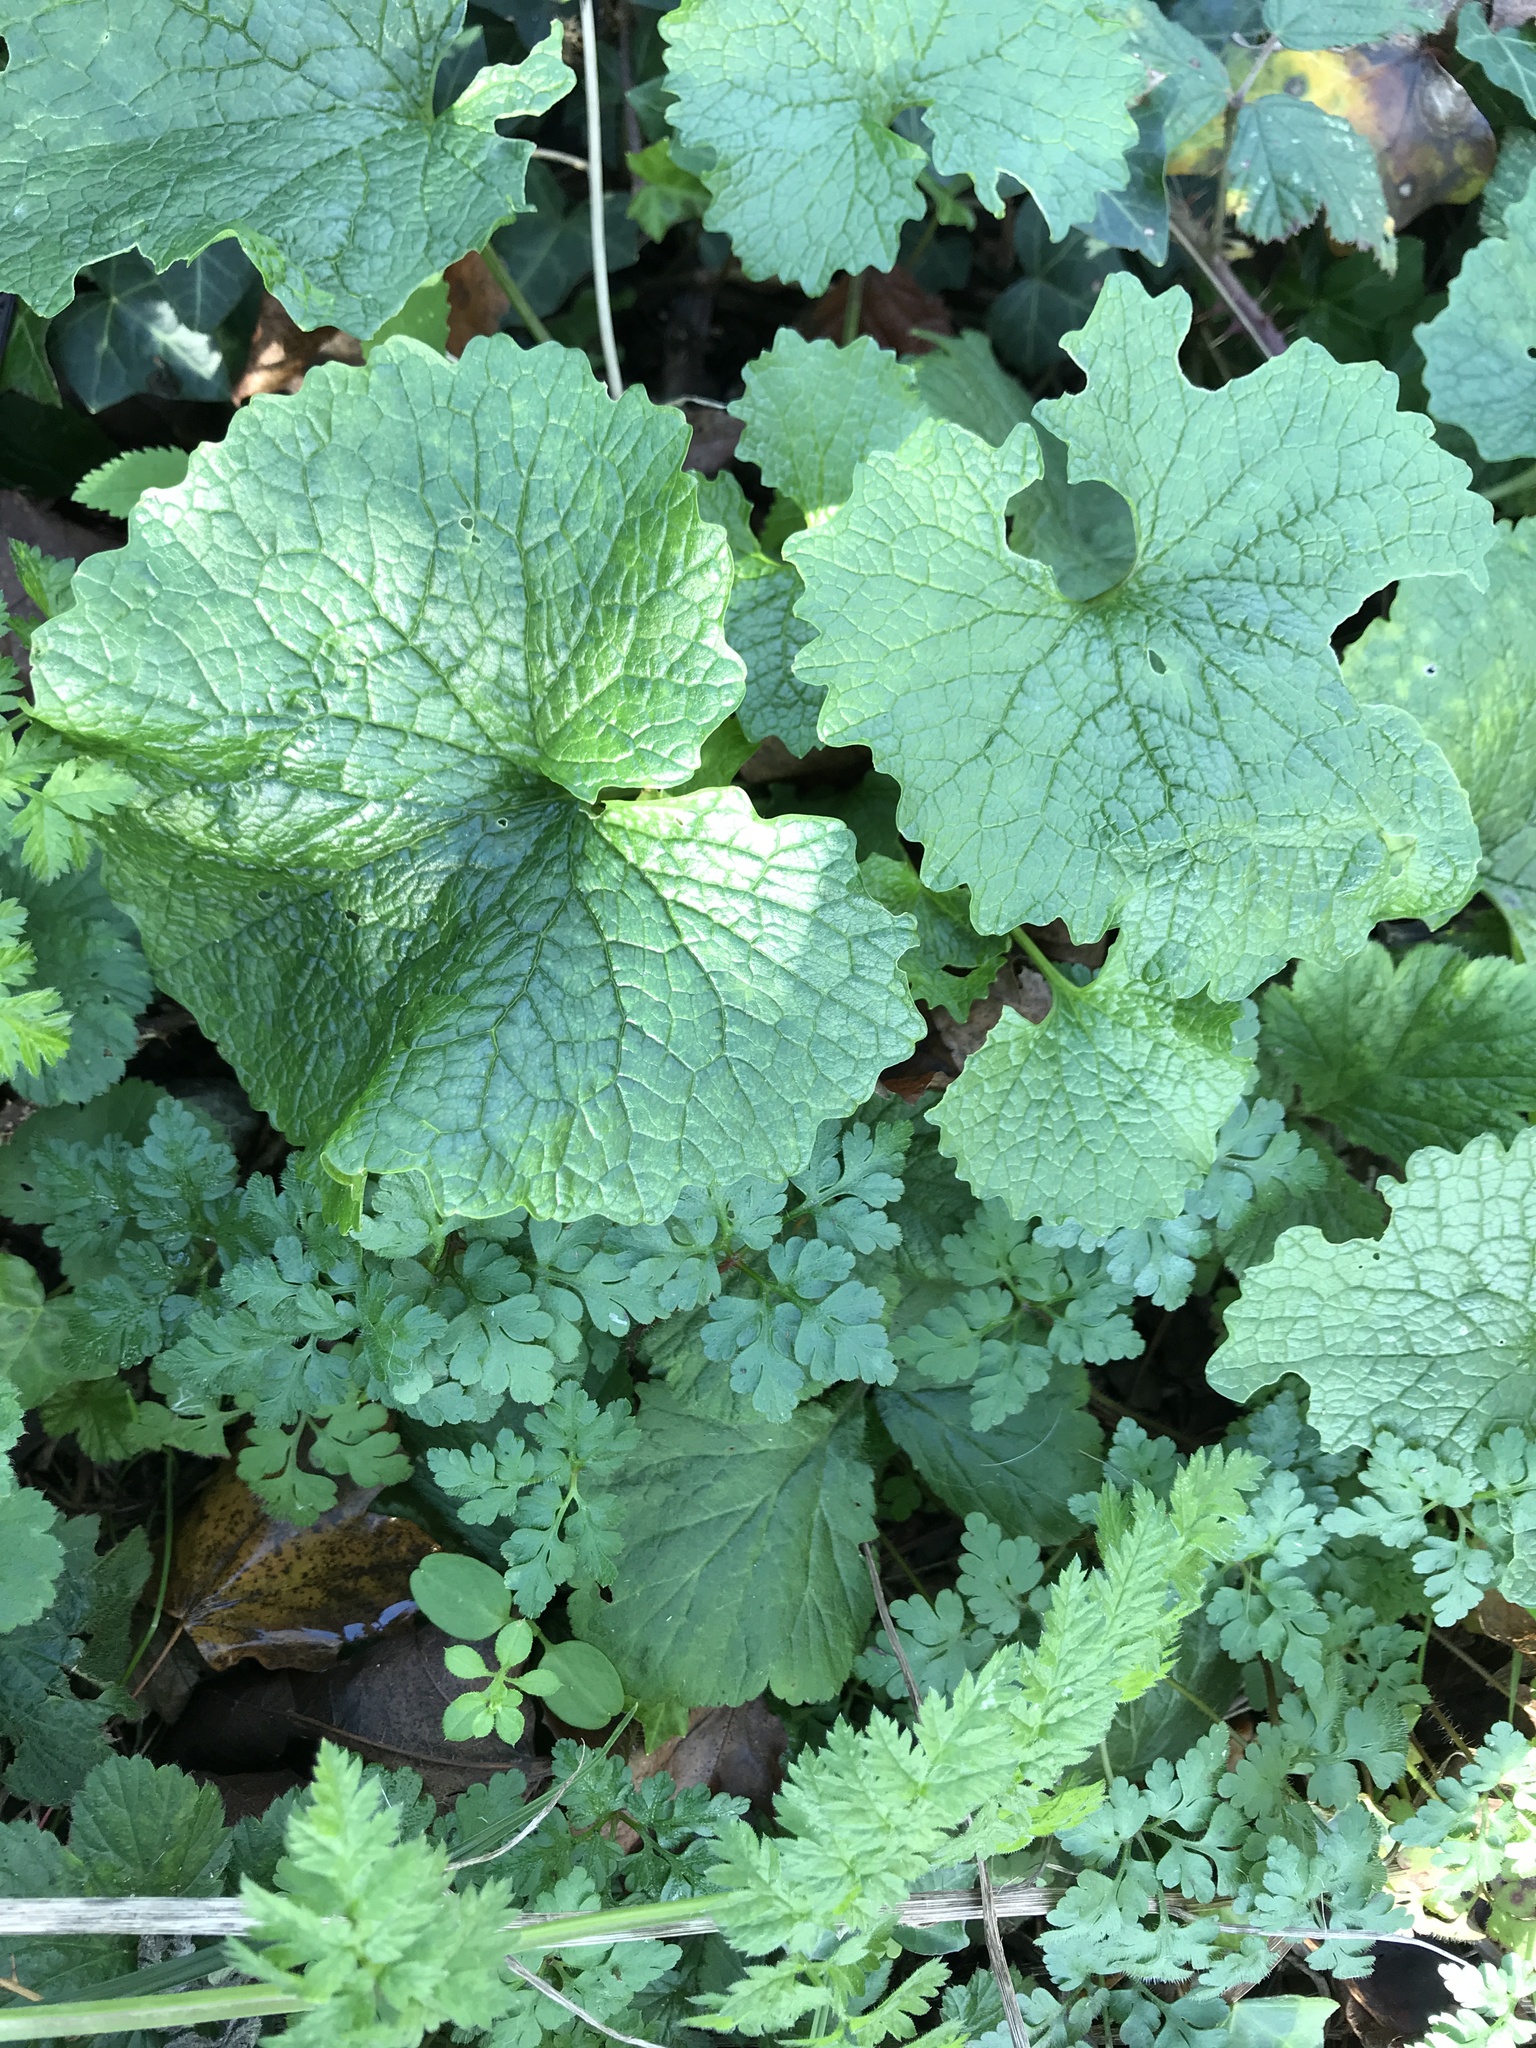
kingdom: Plantae
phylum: Tracheophyta
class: Magnoliopsida
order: Brassicales
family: Brassicaceae
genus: Alliaria
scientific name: Alliaria petiolata
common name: Garlic mustard
